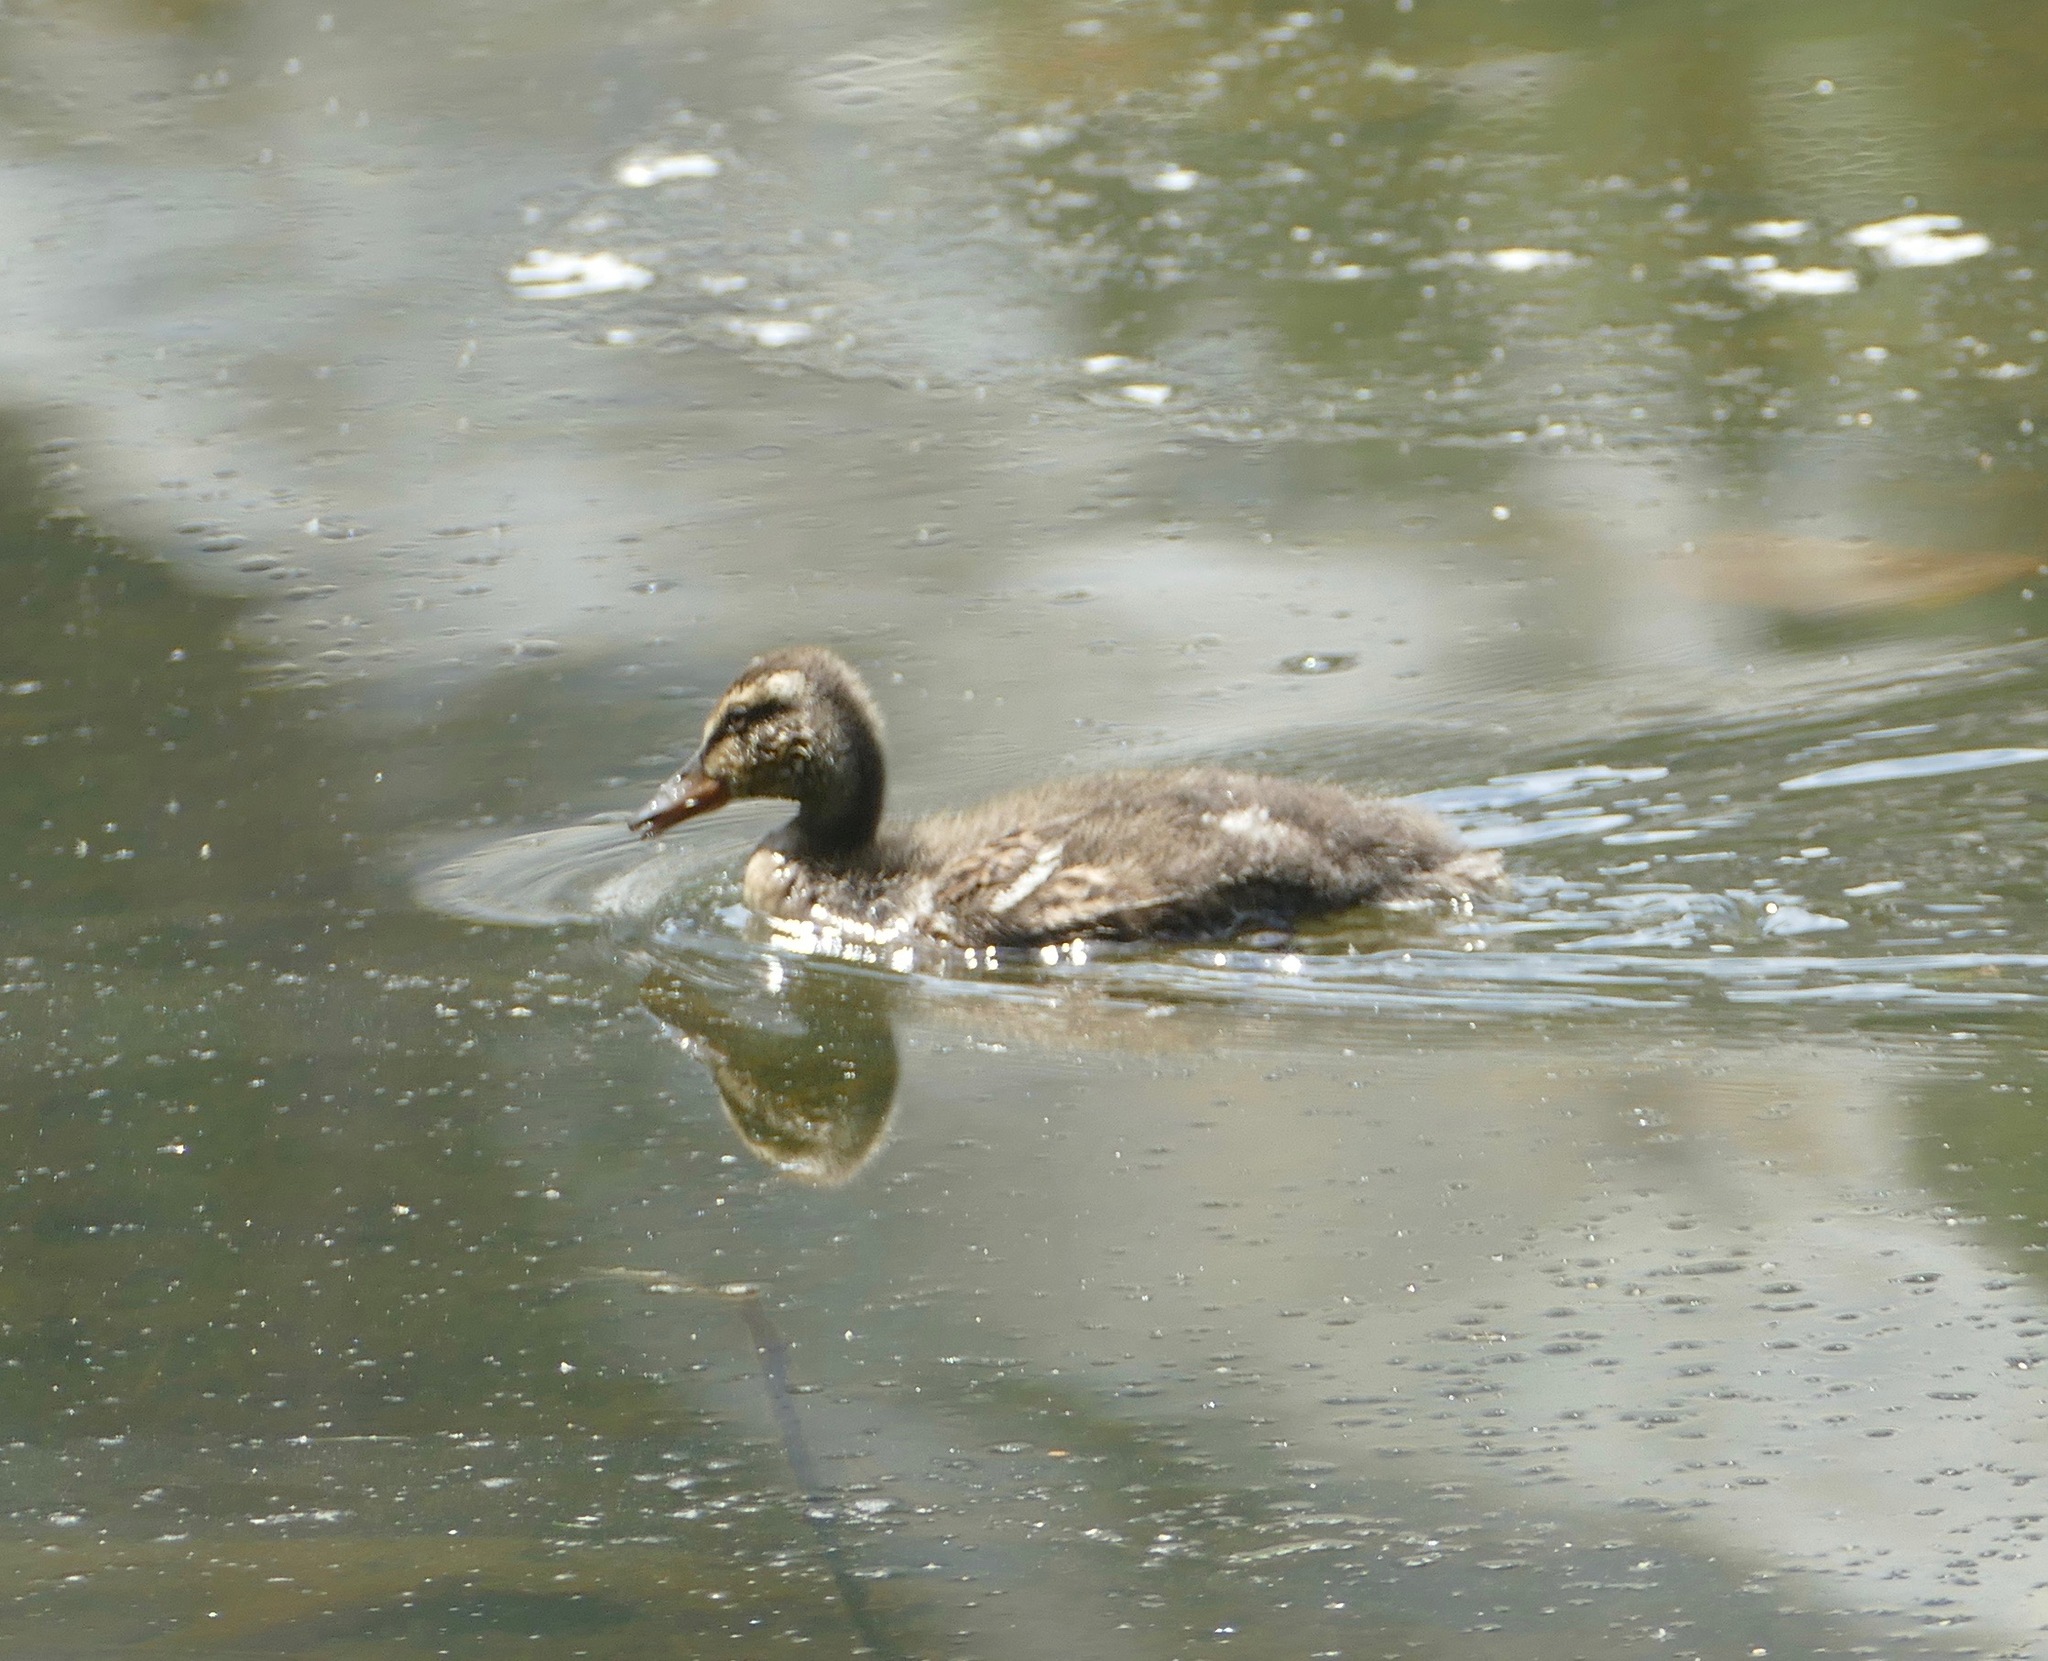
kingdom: Animalia
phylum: Chordata
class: Aves
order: Anseriformes
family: Anatidae
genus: Anas
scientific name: Anas platyrhynchos
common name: Mallard
